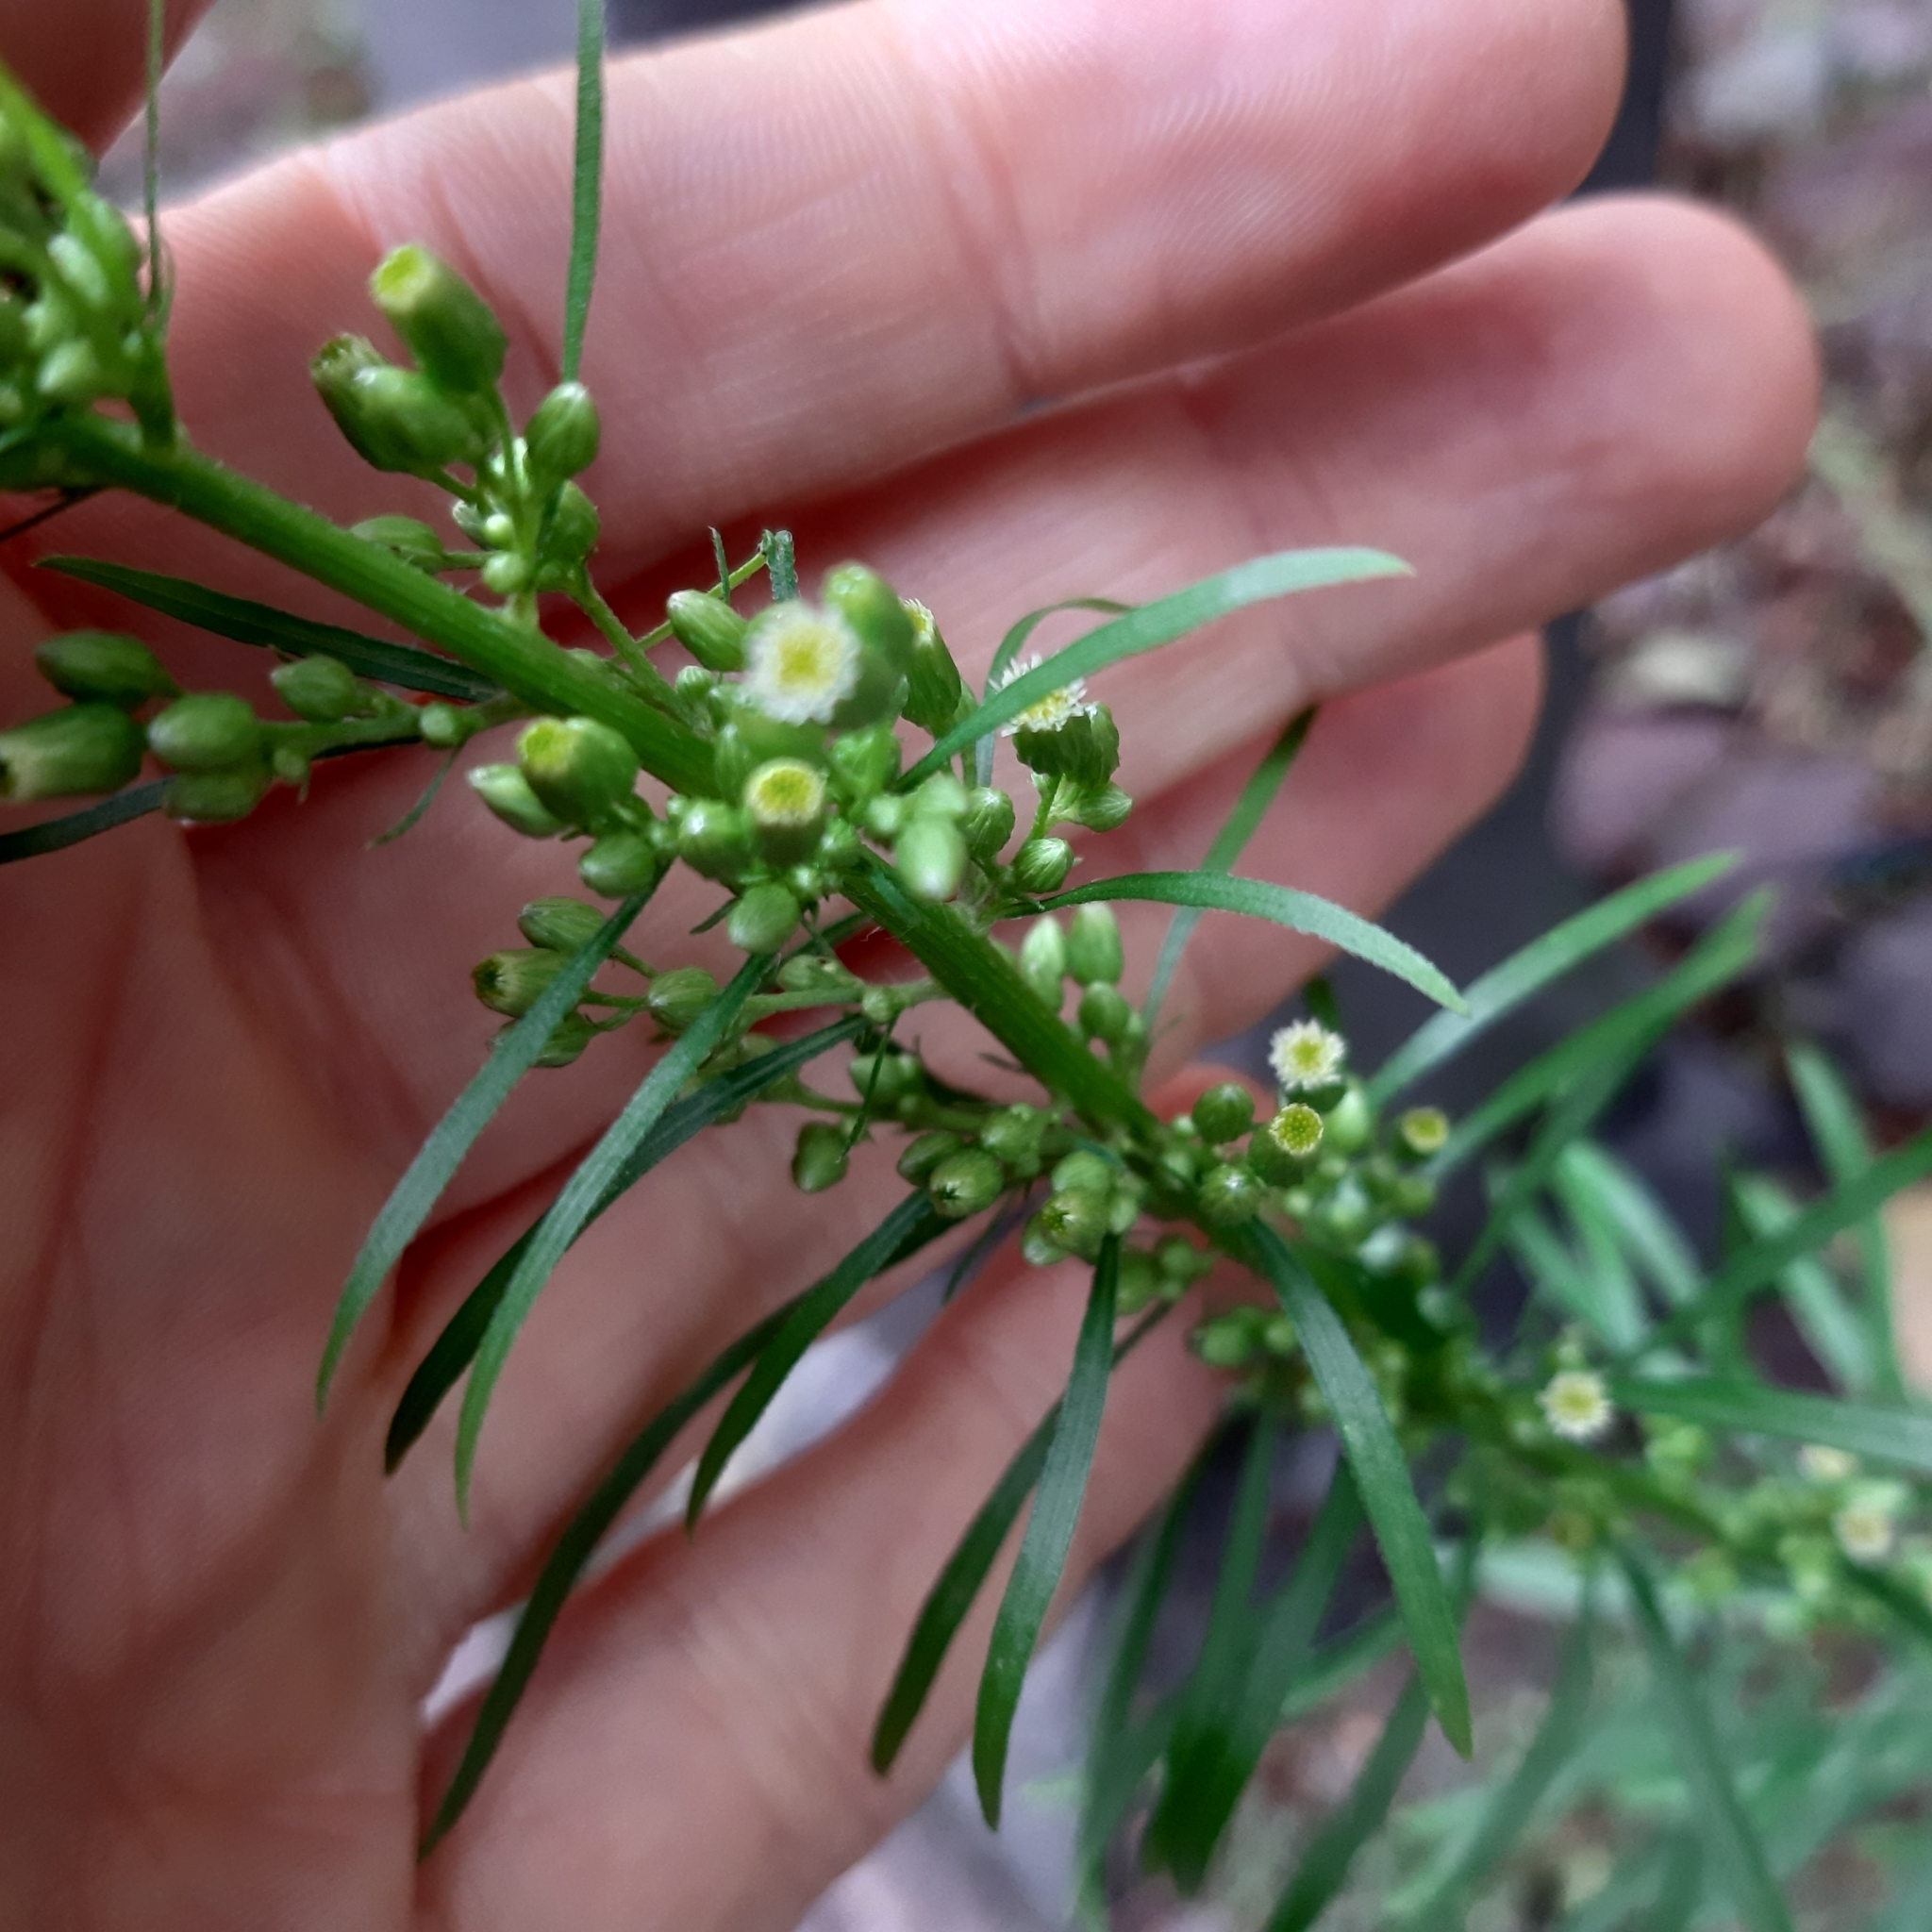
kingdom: Plantae
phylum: Tracheophyta
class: Magnoliopsida
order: Asterales
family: Asteraceae
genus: Erigeron
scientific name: Erigeron canadensis
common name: Canadian fleabane
